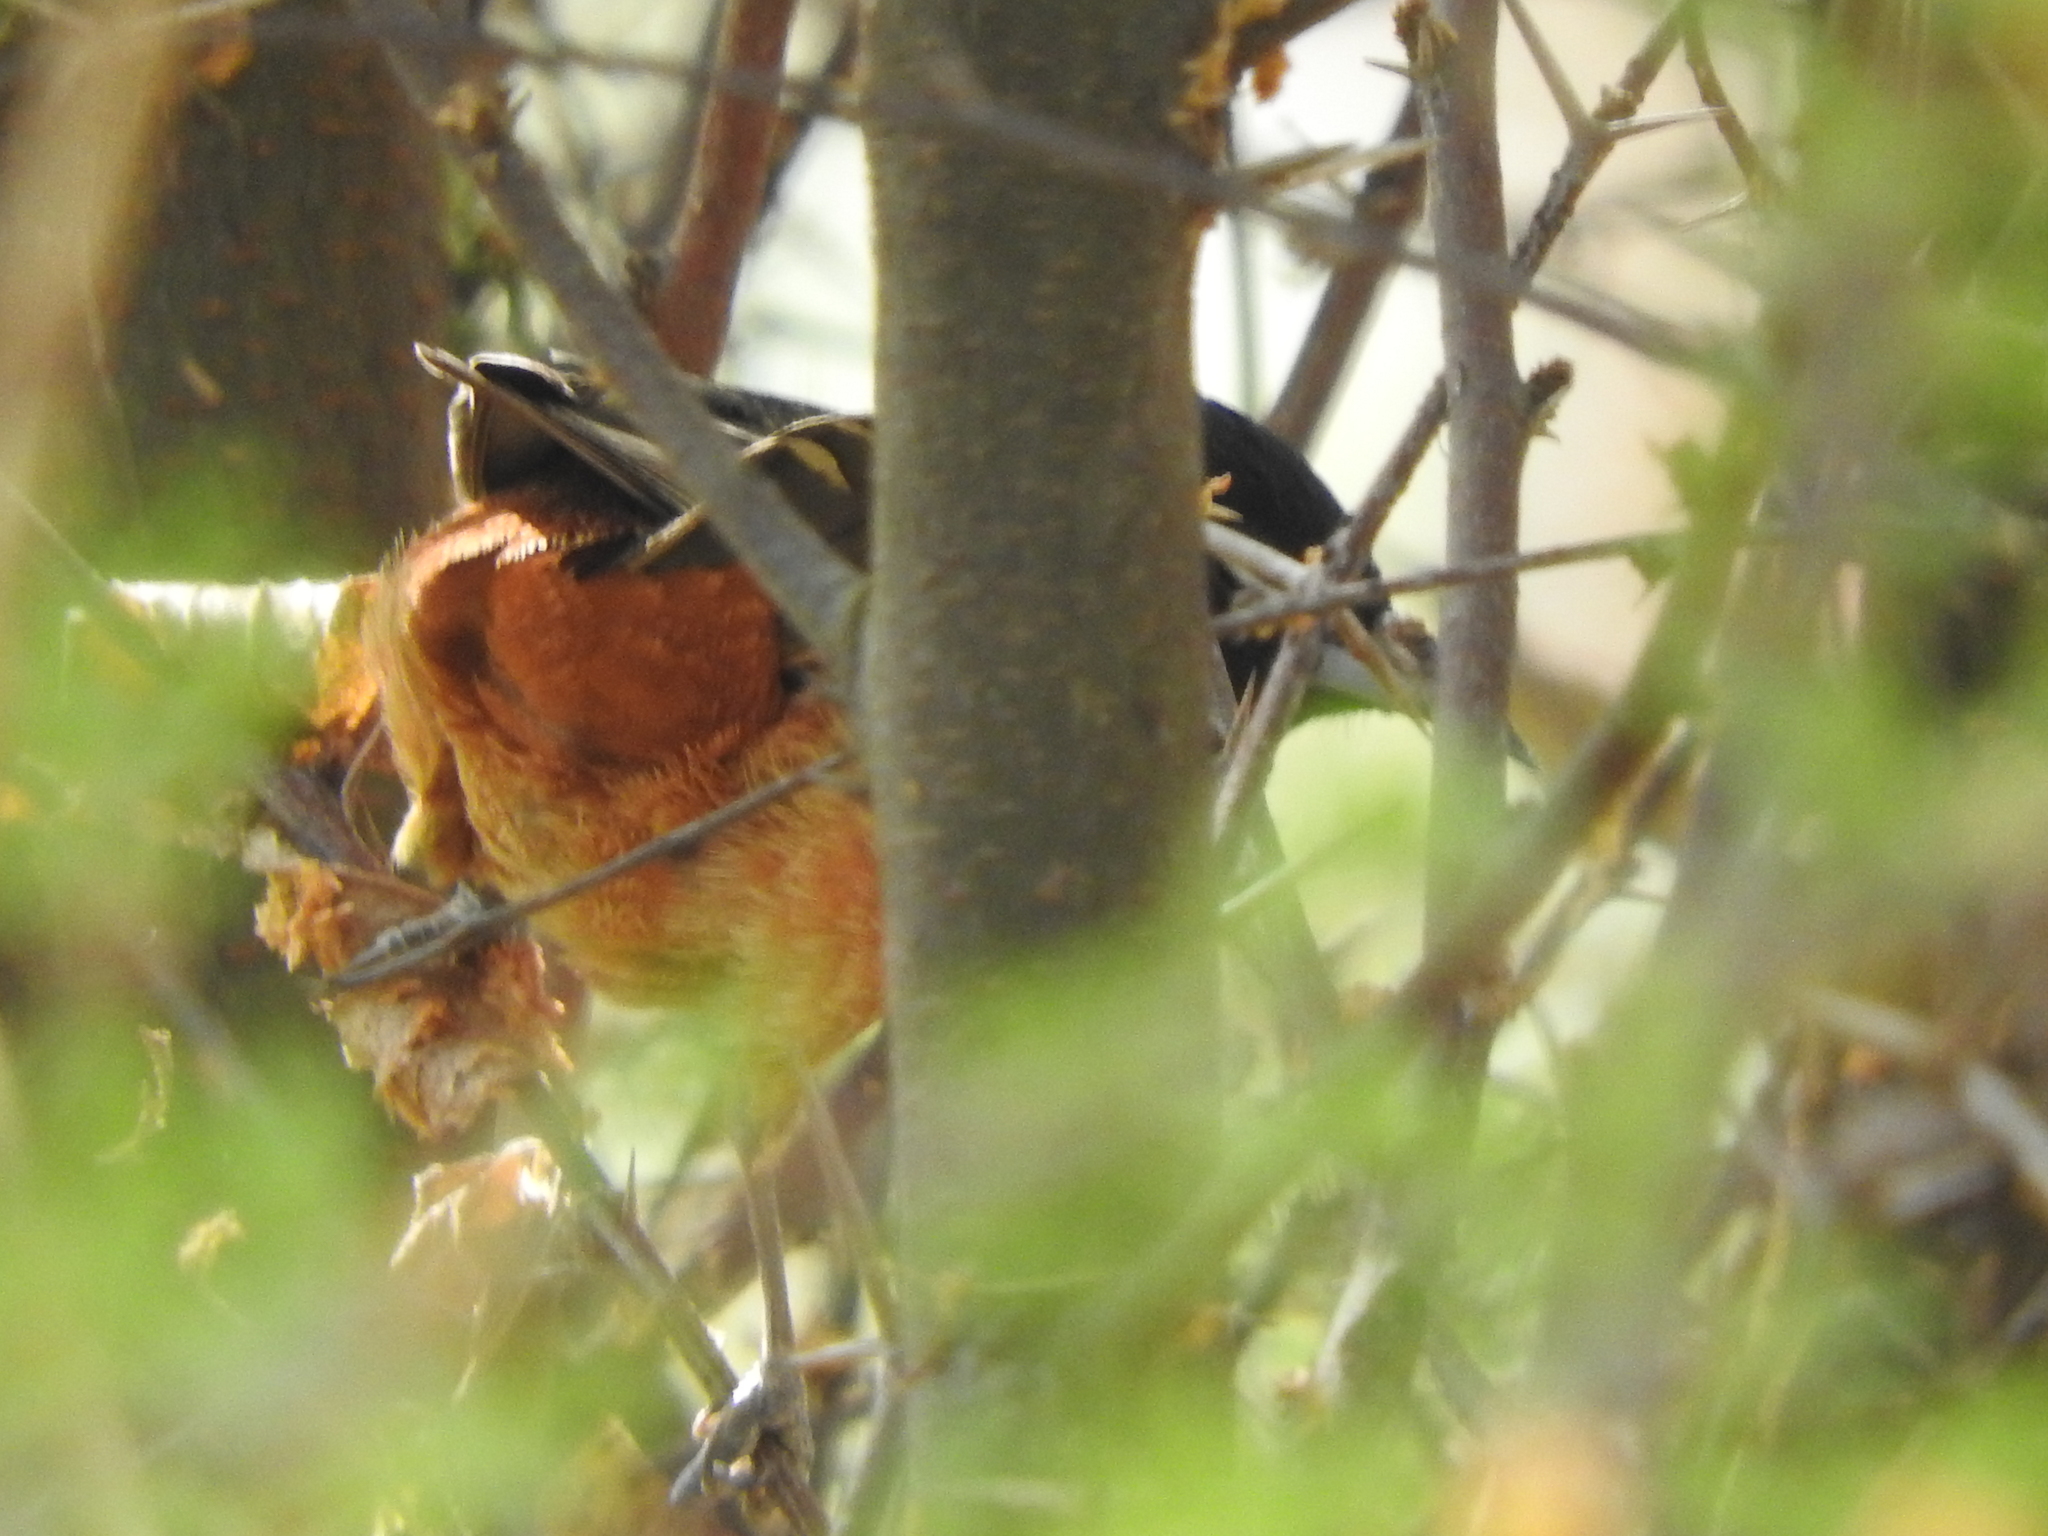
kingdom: Animalia
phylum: Chordata
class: Aves
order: Passeriformes
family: Icteridae
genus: Icterus
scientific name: Icterus spurius
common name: Orchard oriole
